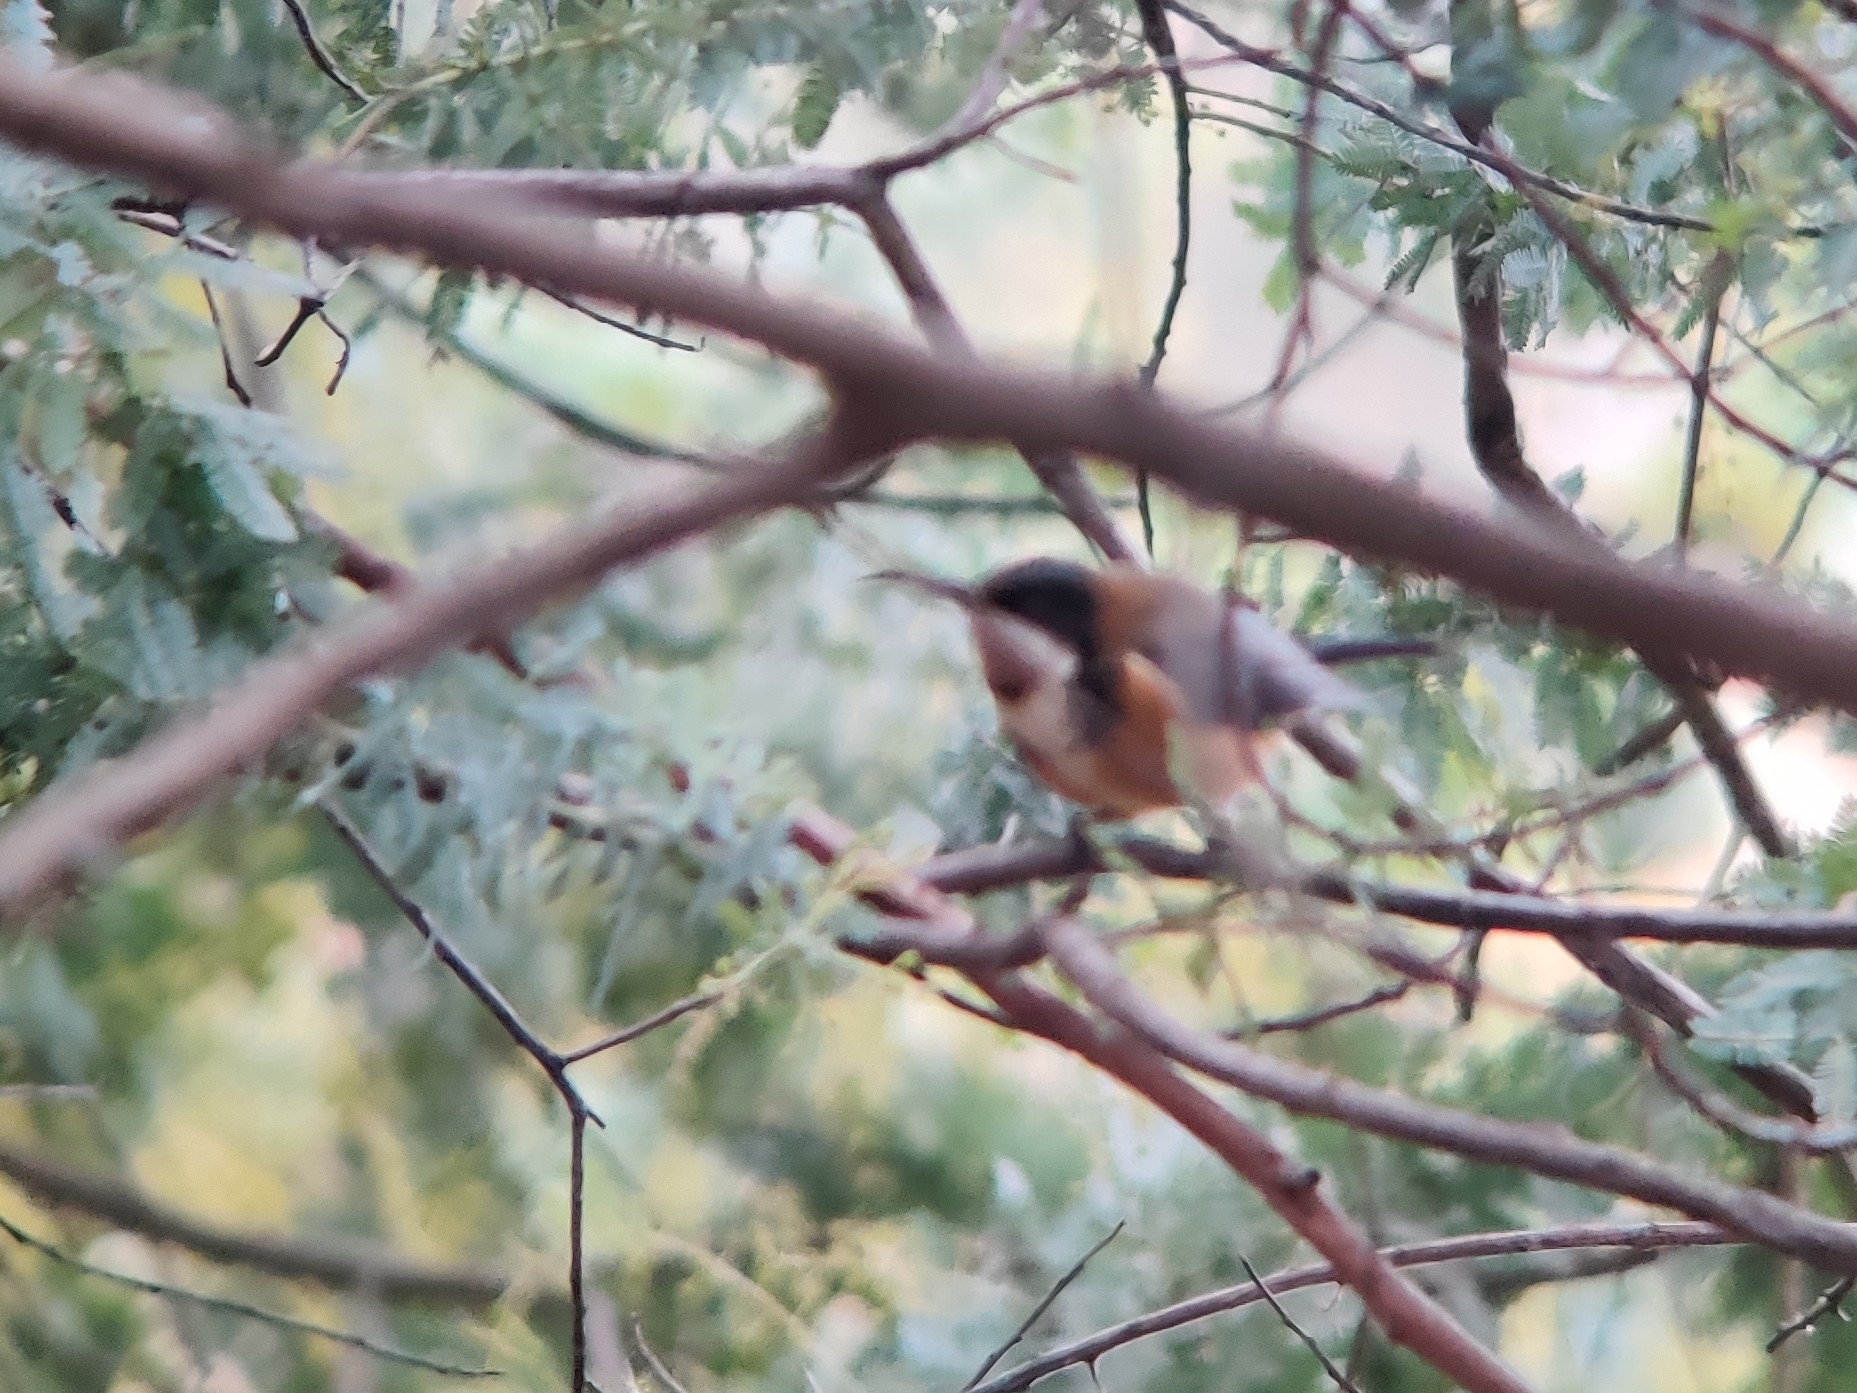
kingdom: Animalia
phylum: Chordata
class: Aves
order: Passeriformes
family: Meliphagidae
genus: Acanthorhynchus
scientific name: Acanthorhynchus tenuirostris
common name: Eastern spinebill
